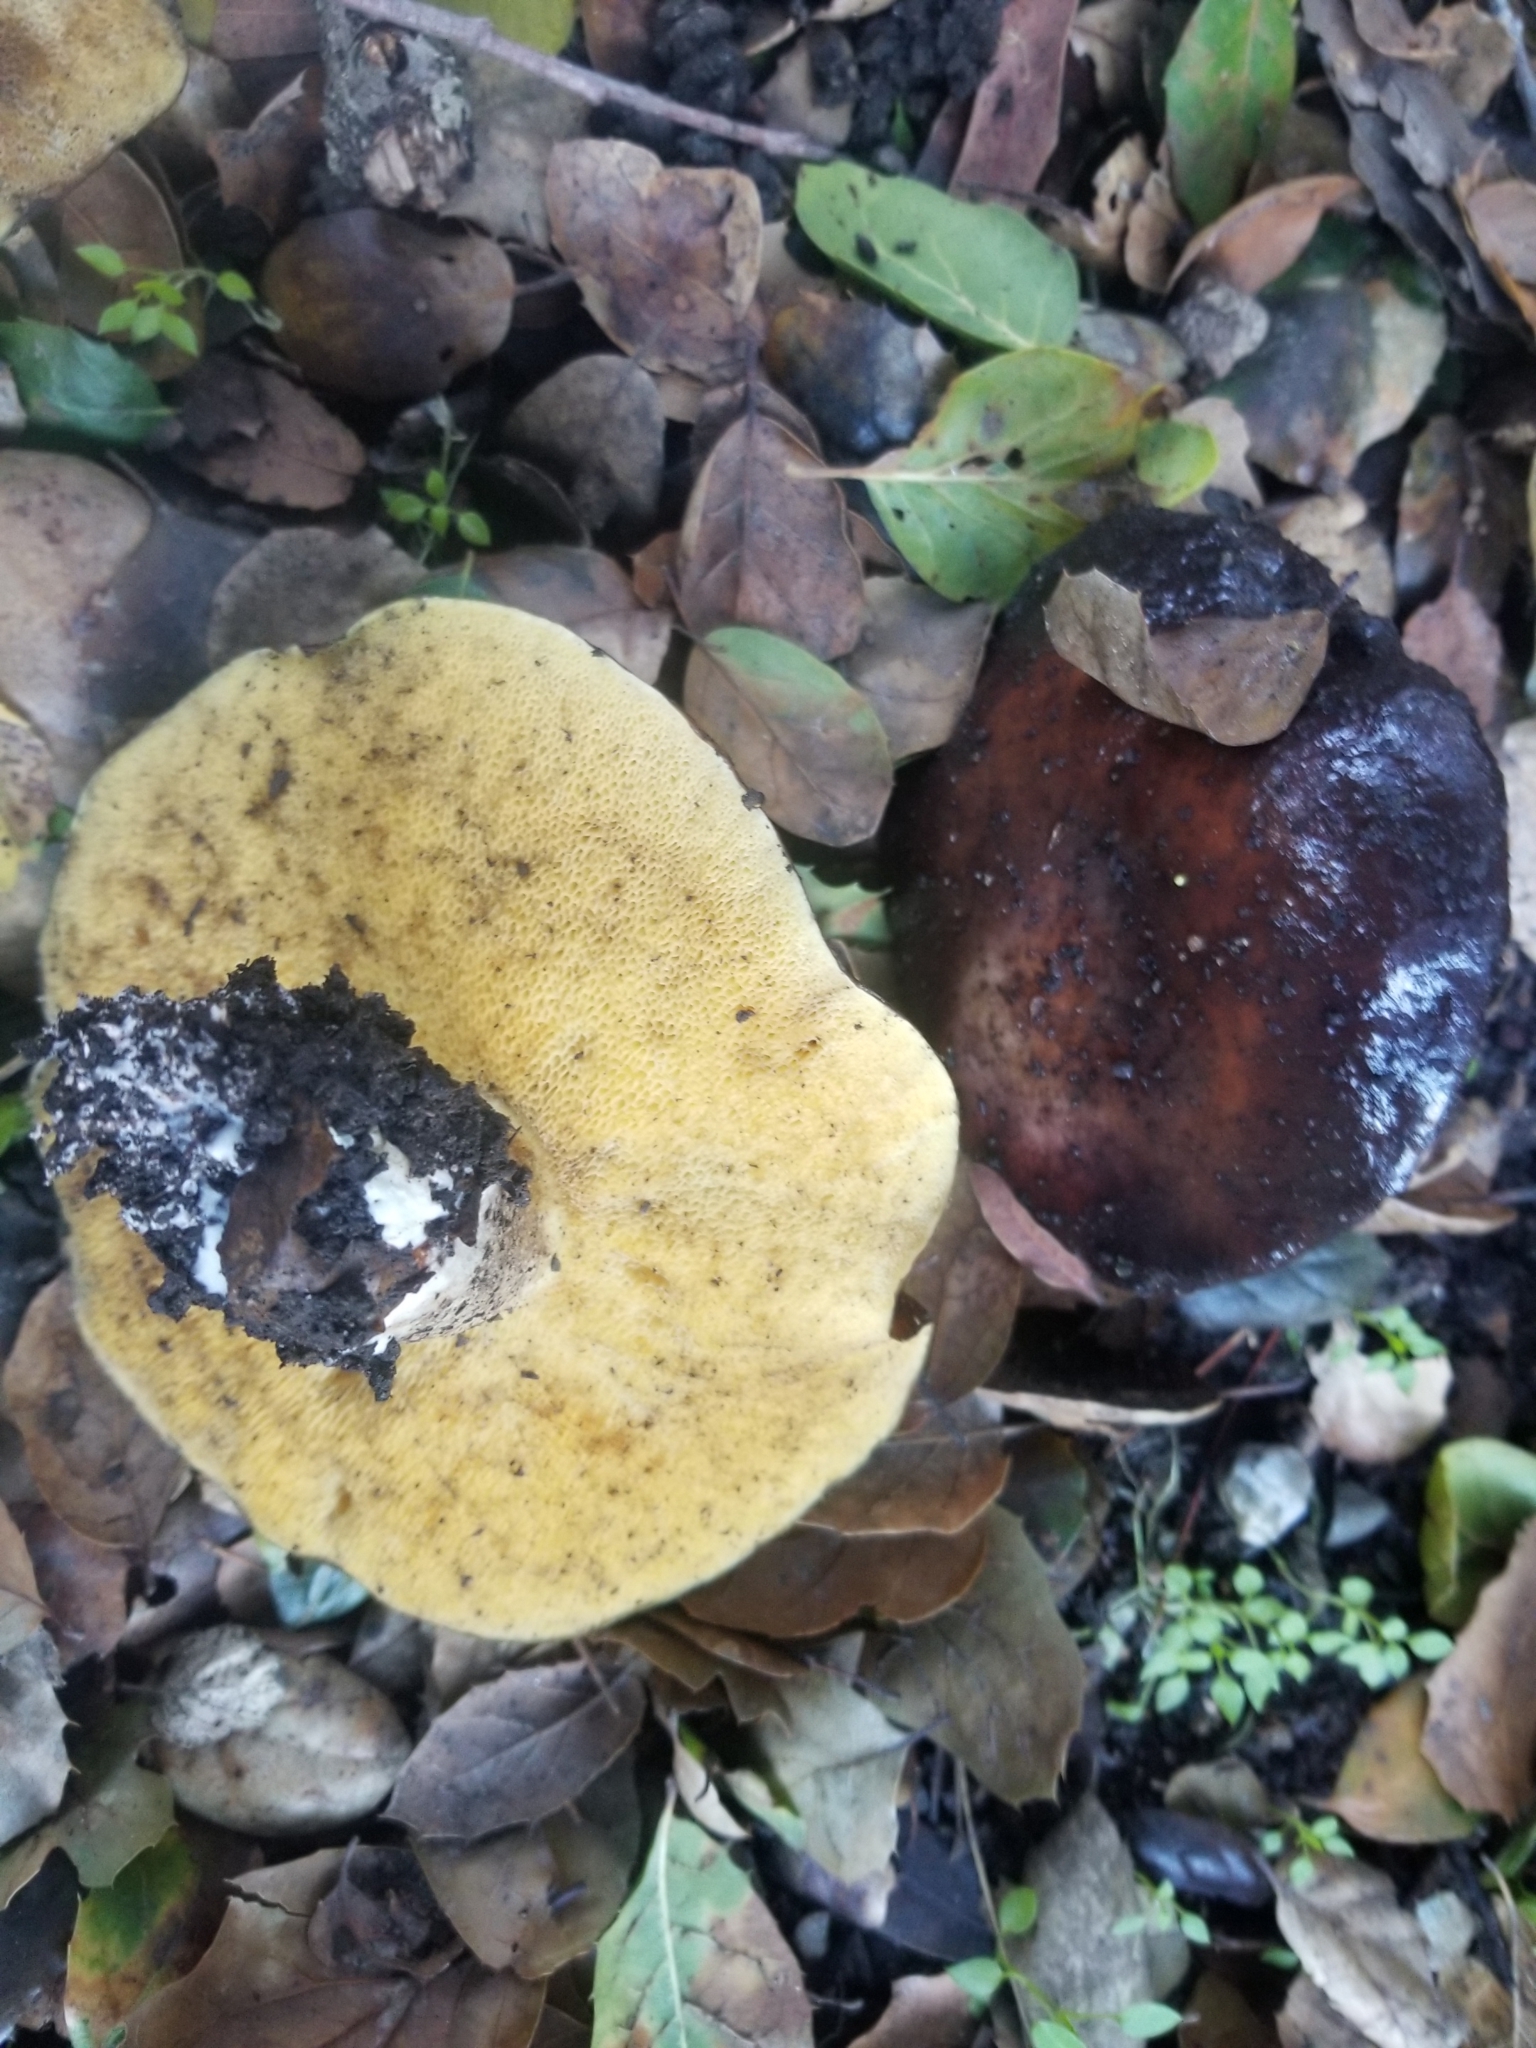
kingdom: Fungi
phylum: Basidiomycota
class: Agaricomycetes
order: Boletales
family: Suillaceae
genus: Suillus
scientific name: Suillus pungens
